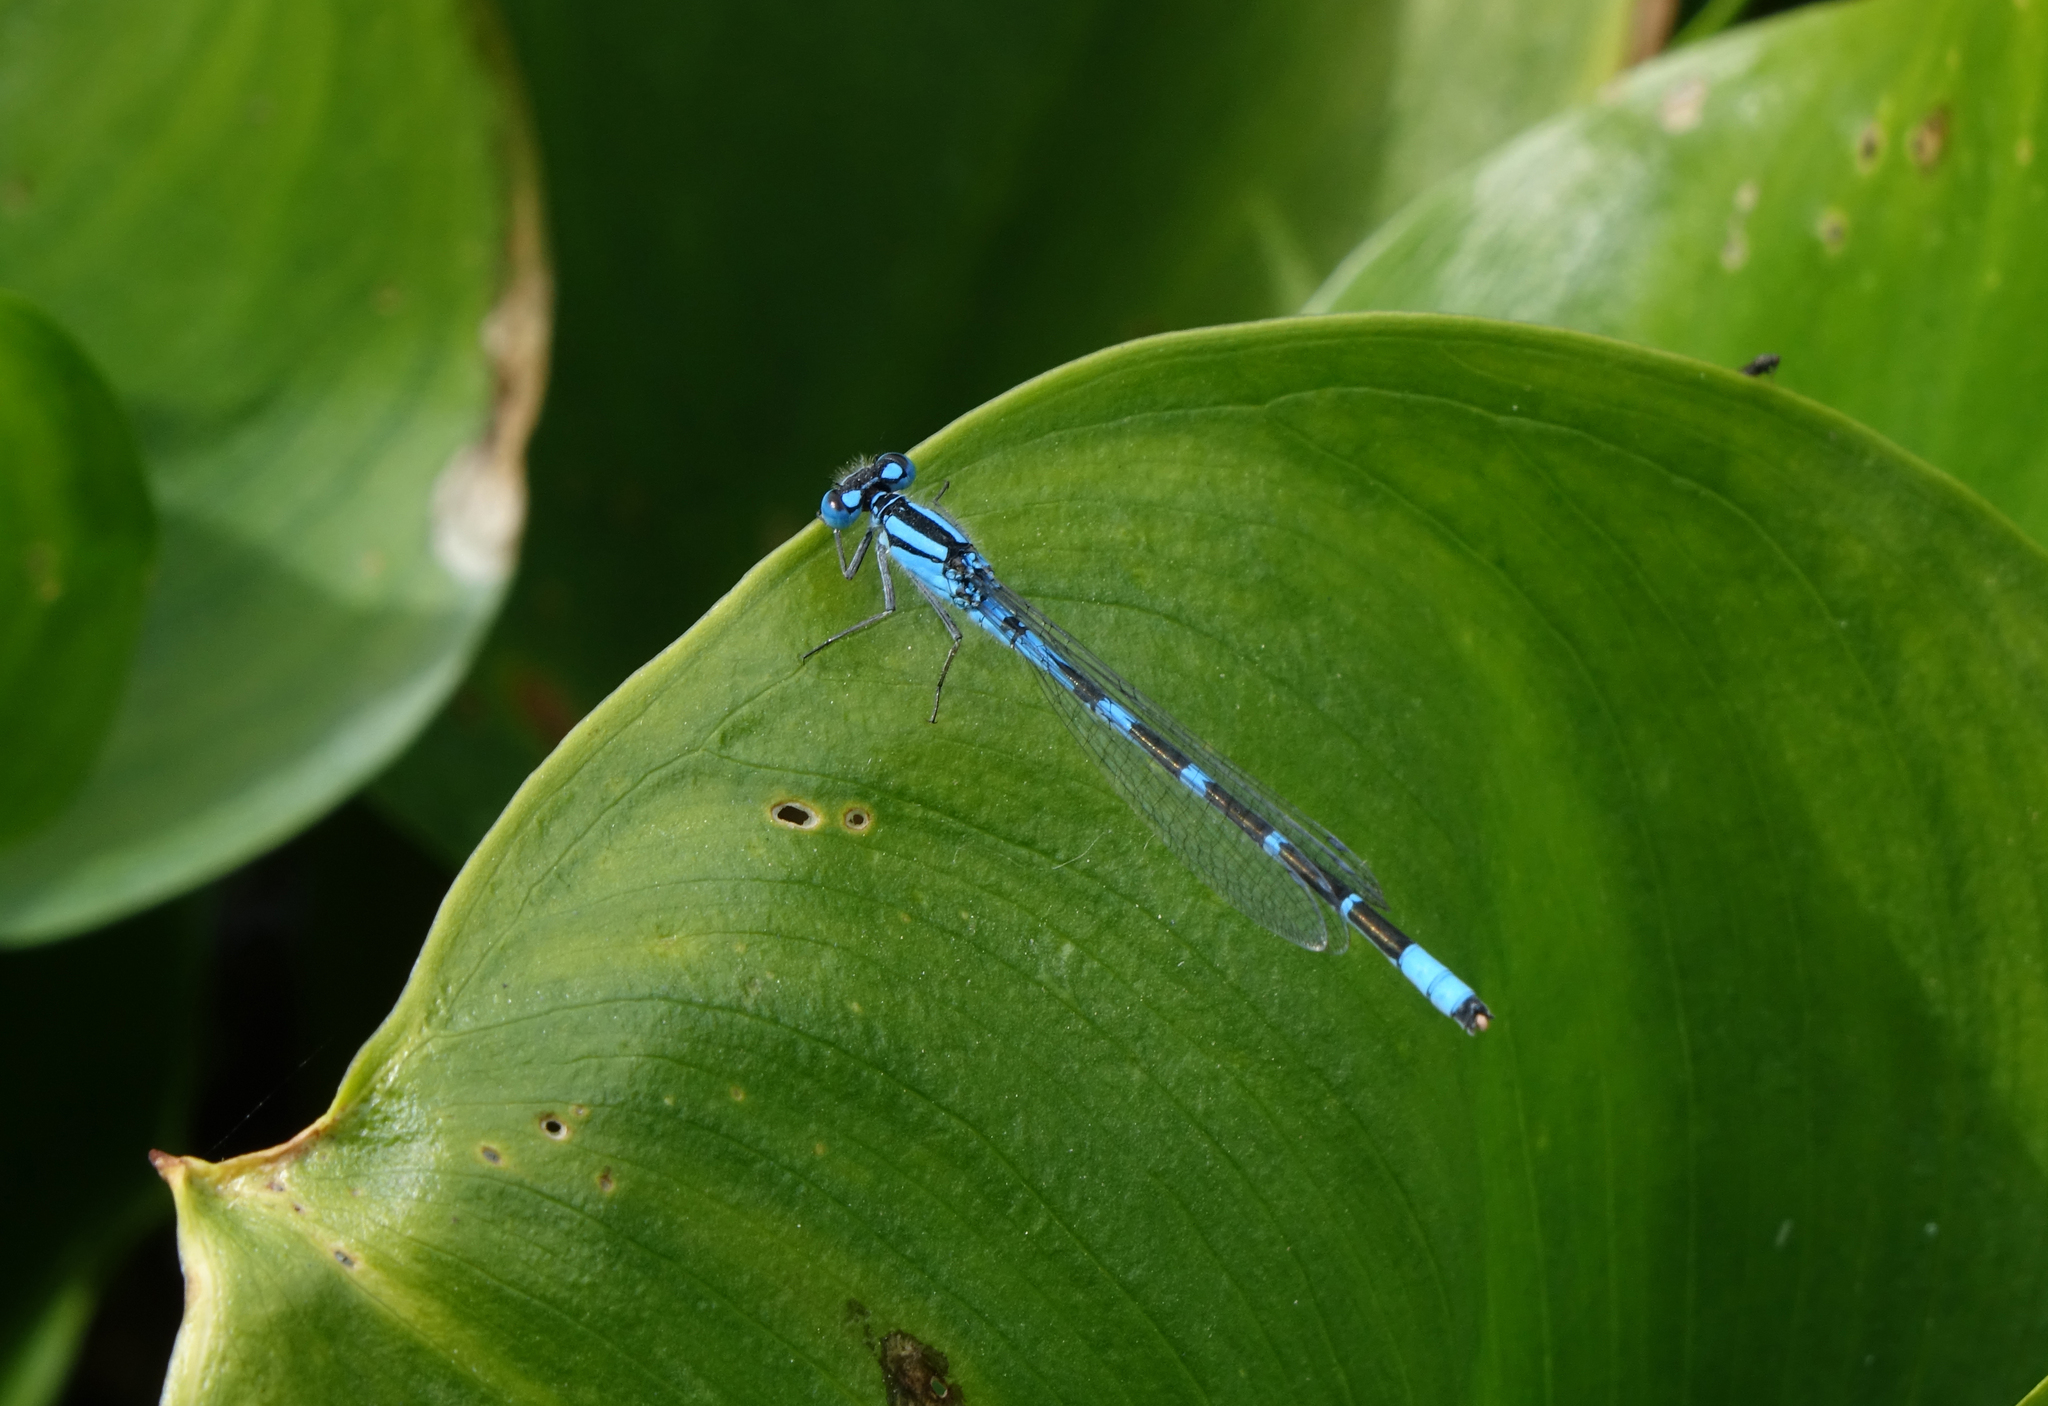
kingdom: Animalia
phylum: Arthropoda
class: Insecta
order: Odonata
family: Coenagrionidae
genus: Enallagma
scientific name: Enallagma cyathigerum
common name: Common blue damselfly
